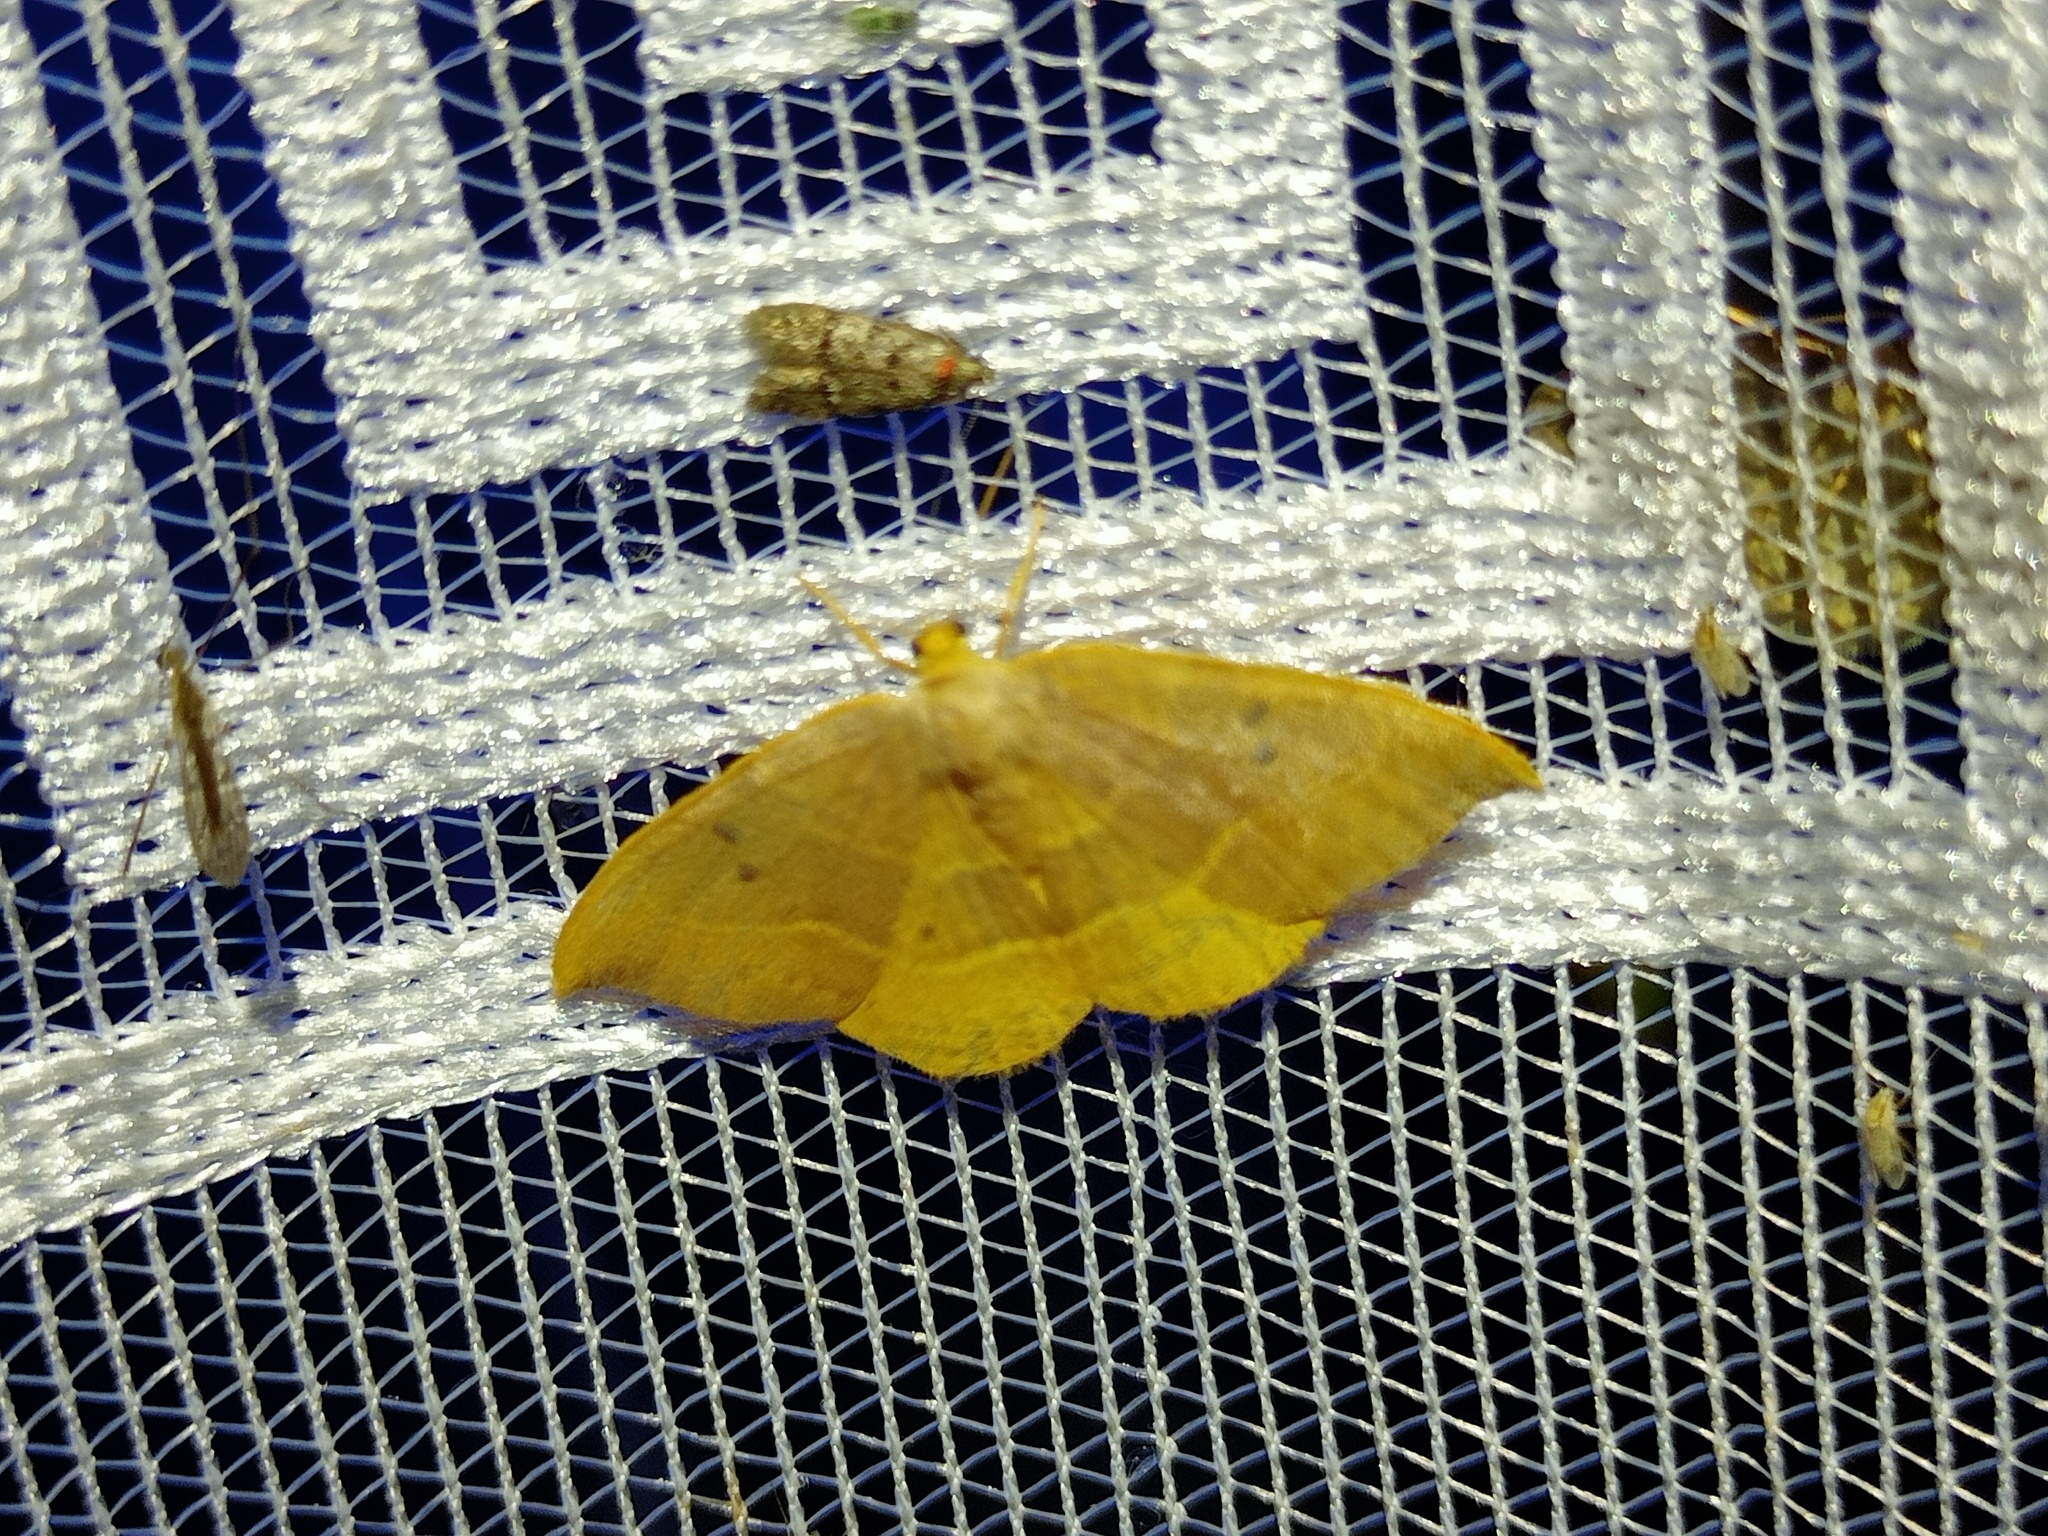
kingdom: Animalia
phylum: Arthropoda
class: Insecta
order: Lepidoptera
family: Drepanidae
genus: Watsonalla
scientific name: Watsonalla binaria
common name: Oak hook-tip
